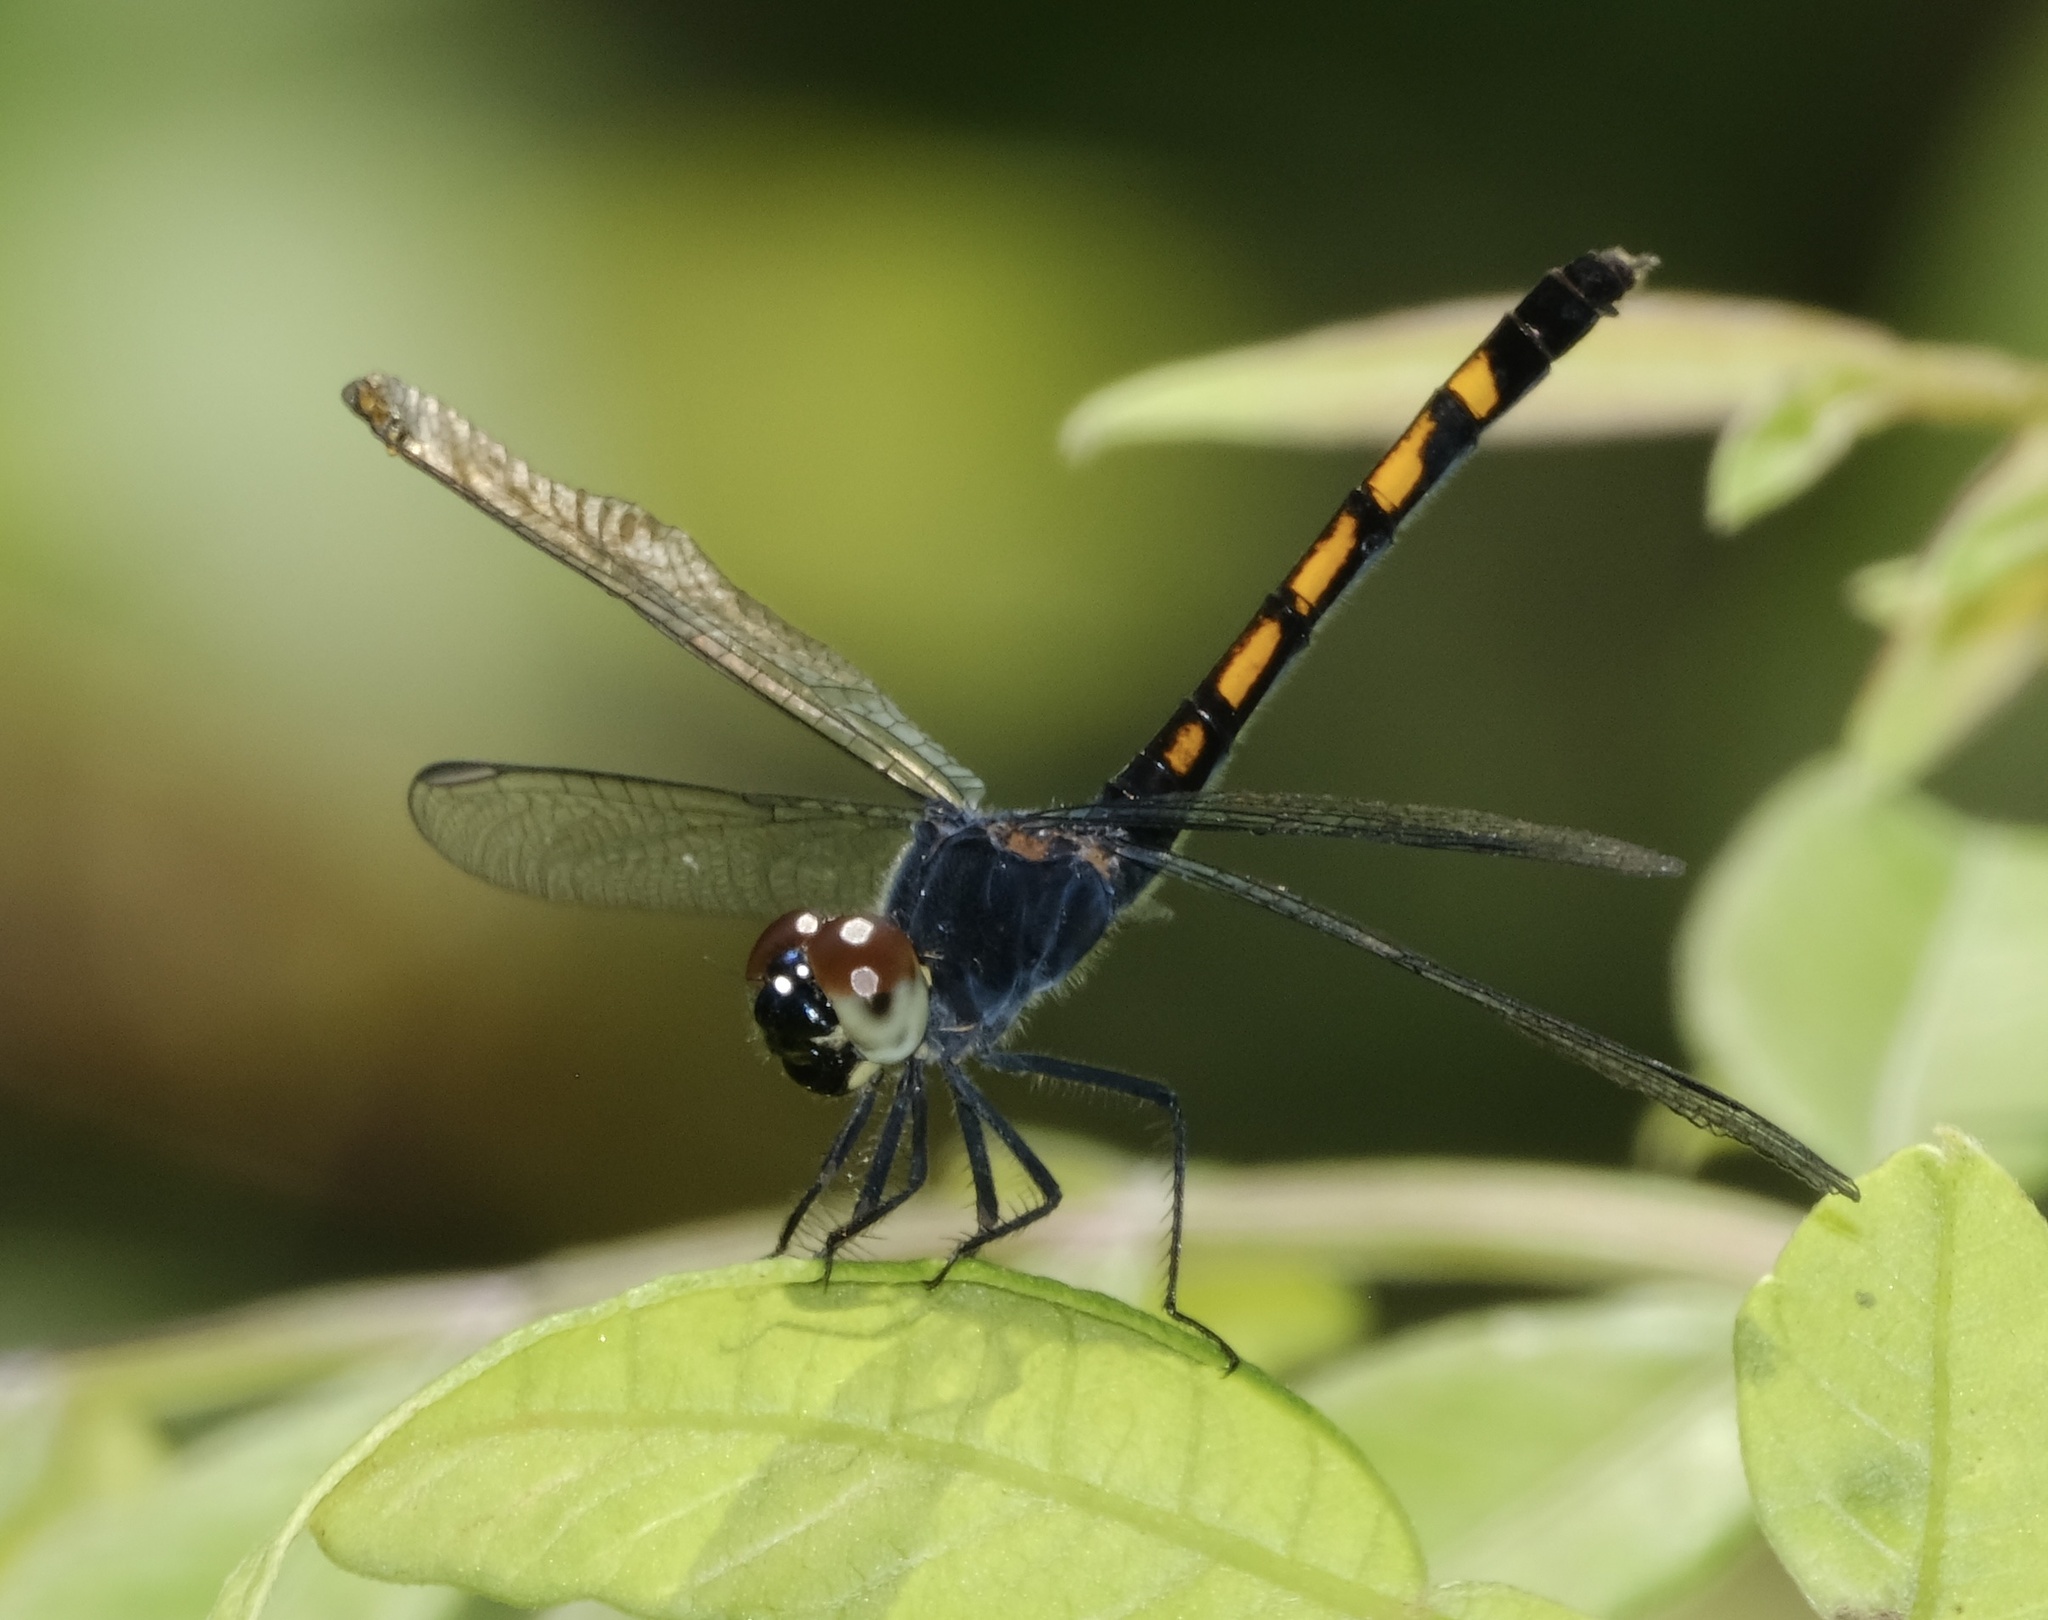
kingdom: Animalia
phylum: Arthropoda
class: Insecta
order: Odonata
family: Libellulidae
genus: Erythrodiplax
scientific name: Erythrodiplax berenice
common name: Seaside dragonlet
